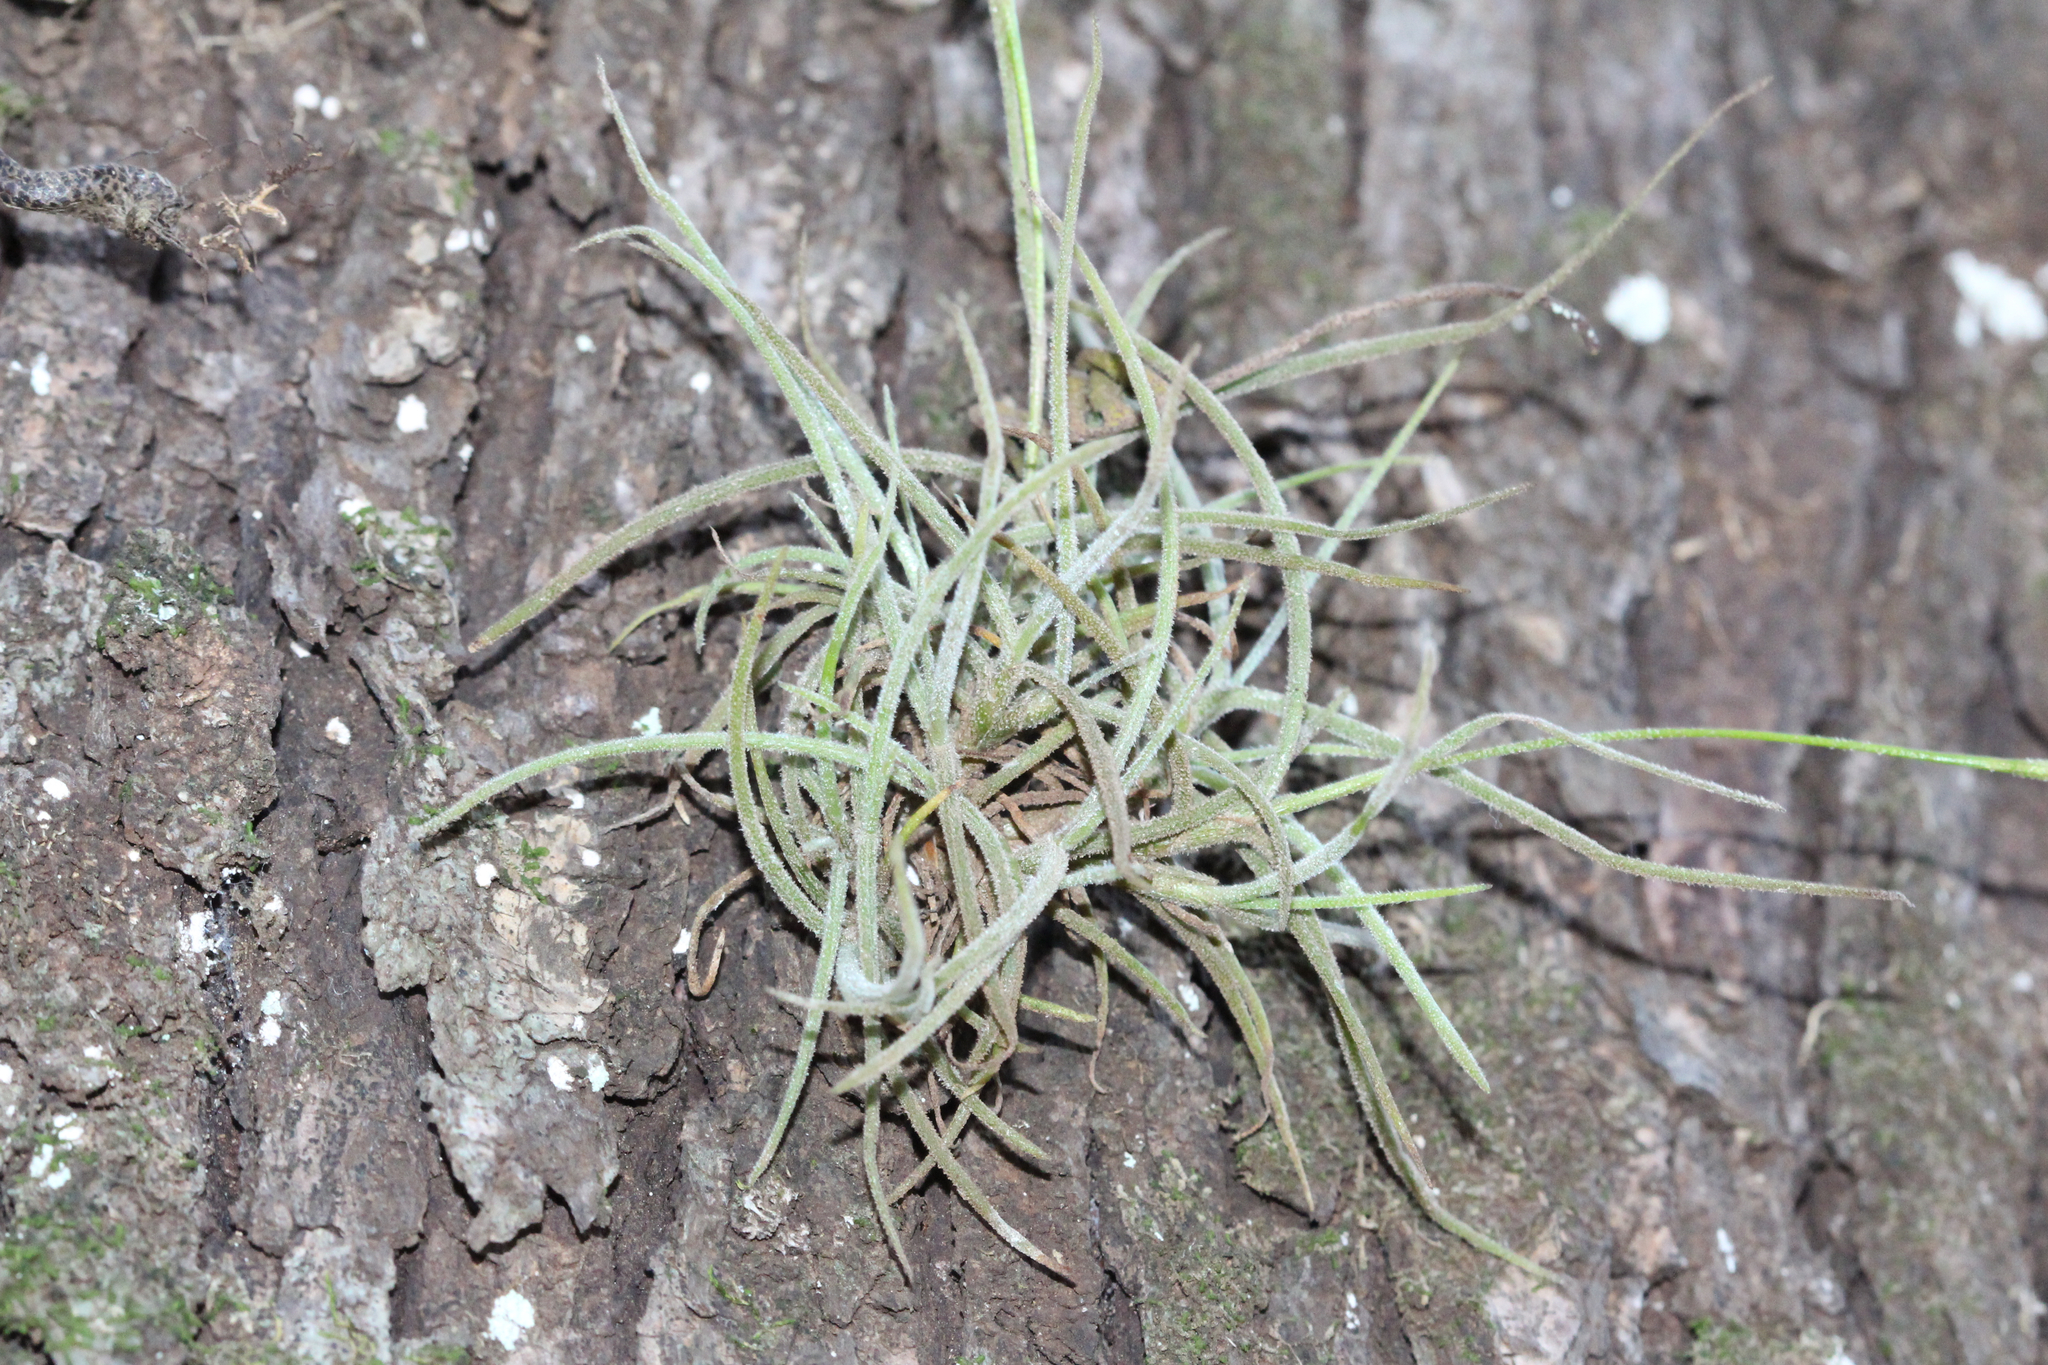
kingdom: Plantae
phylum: Tracheophyta
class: Liliopsida
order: Poales
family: Bromeliaceae
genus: Tillandsia
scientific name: Tillandsia recurvata
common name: Small ballmoss
